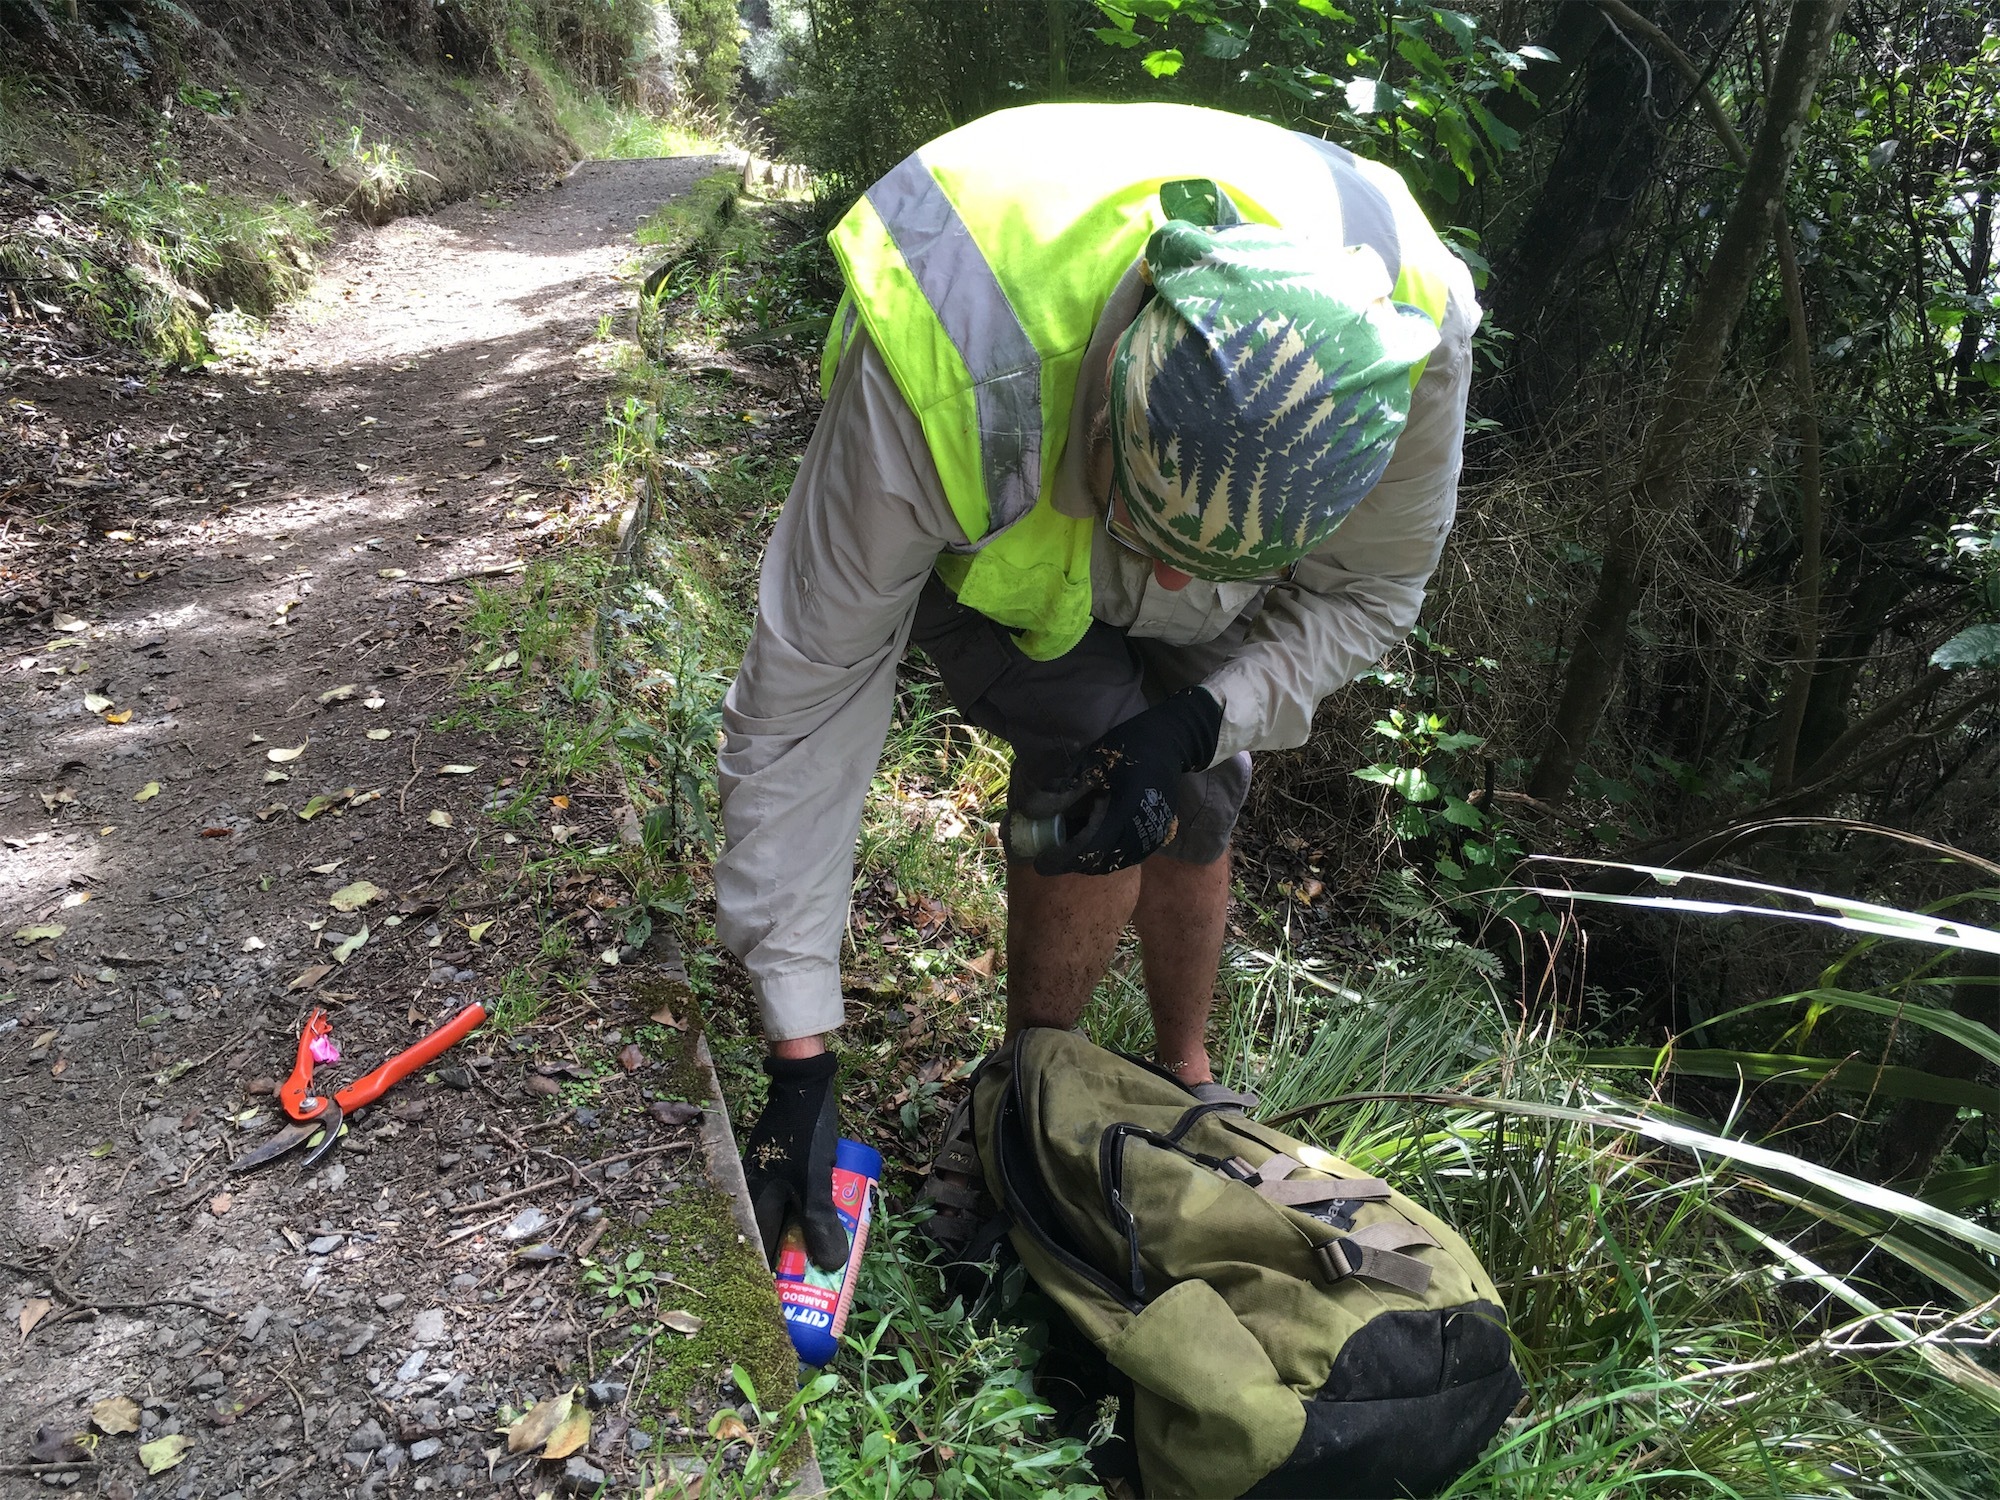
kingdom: Plantae
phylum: Tracheophyta
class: Magnoliopsida
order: Malpighiales
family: Hypericaceae
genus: Hypericum
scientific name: Hypericum androsaemum
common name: Sweet-amber
